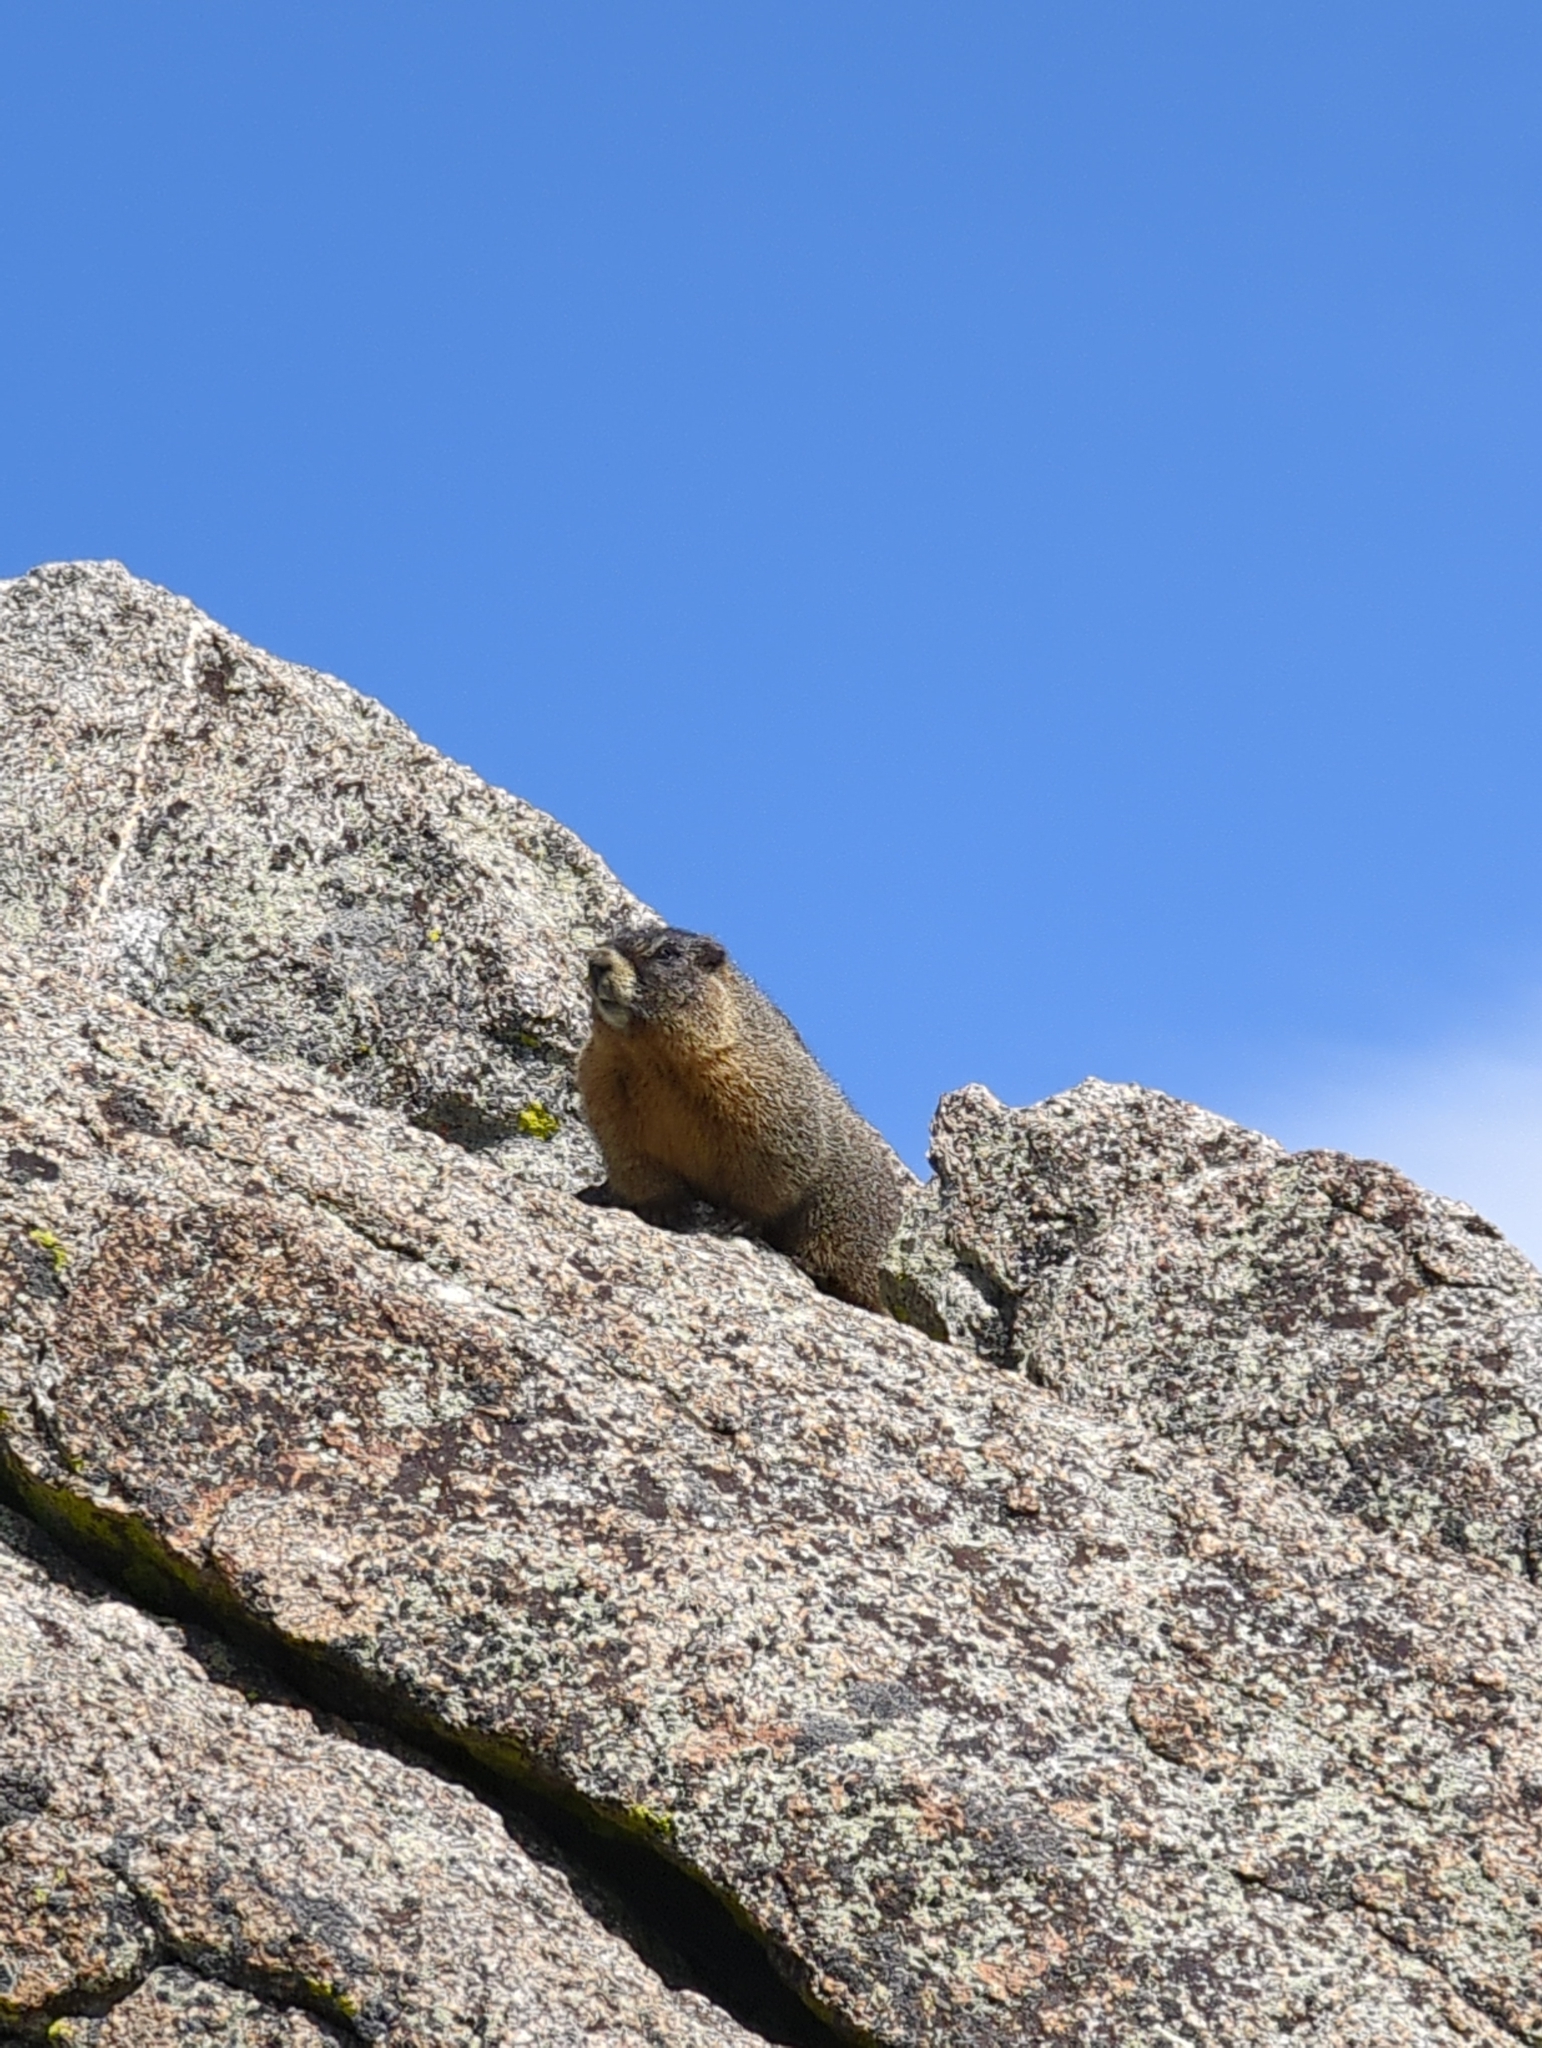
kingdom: Animalia
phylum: Chordata
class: Mammalia
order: Rodentia
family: Sciuridae
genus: Marmota
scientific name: Marmota flaviventris
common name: Yellow-bellied marmot
